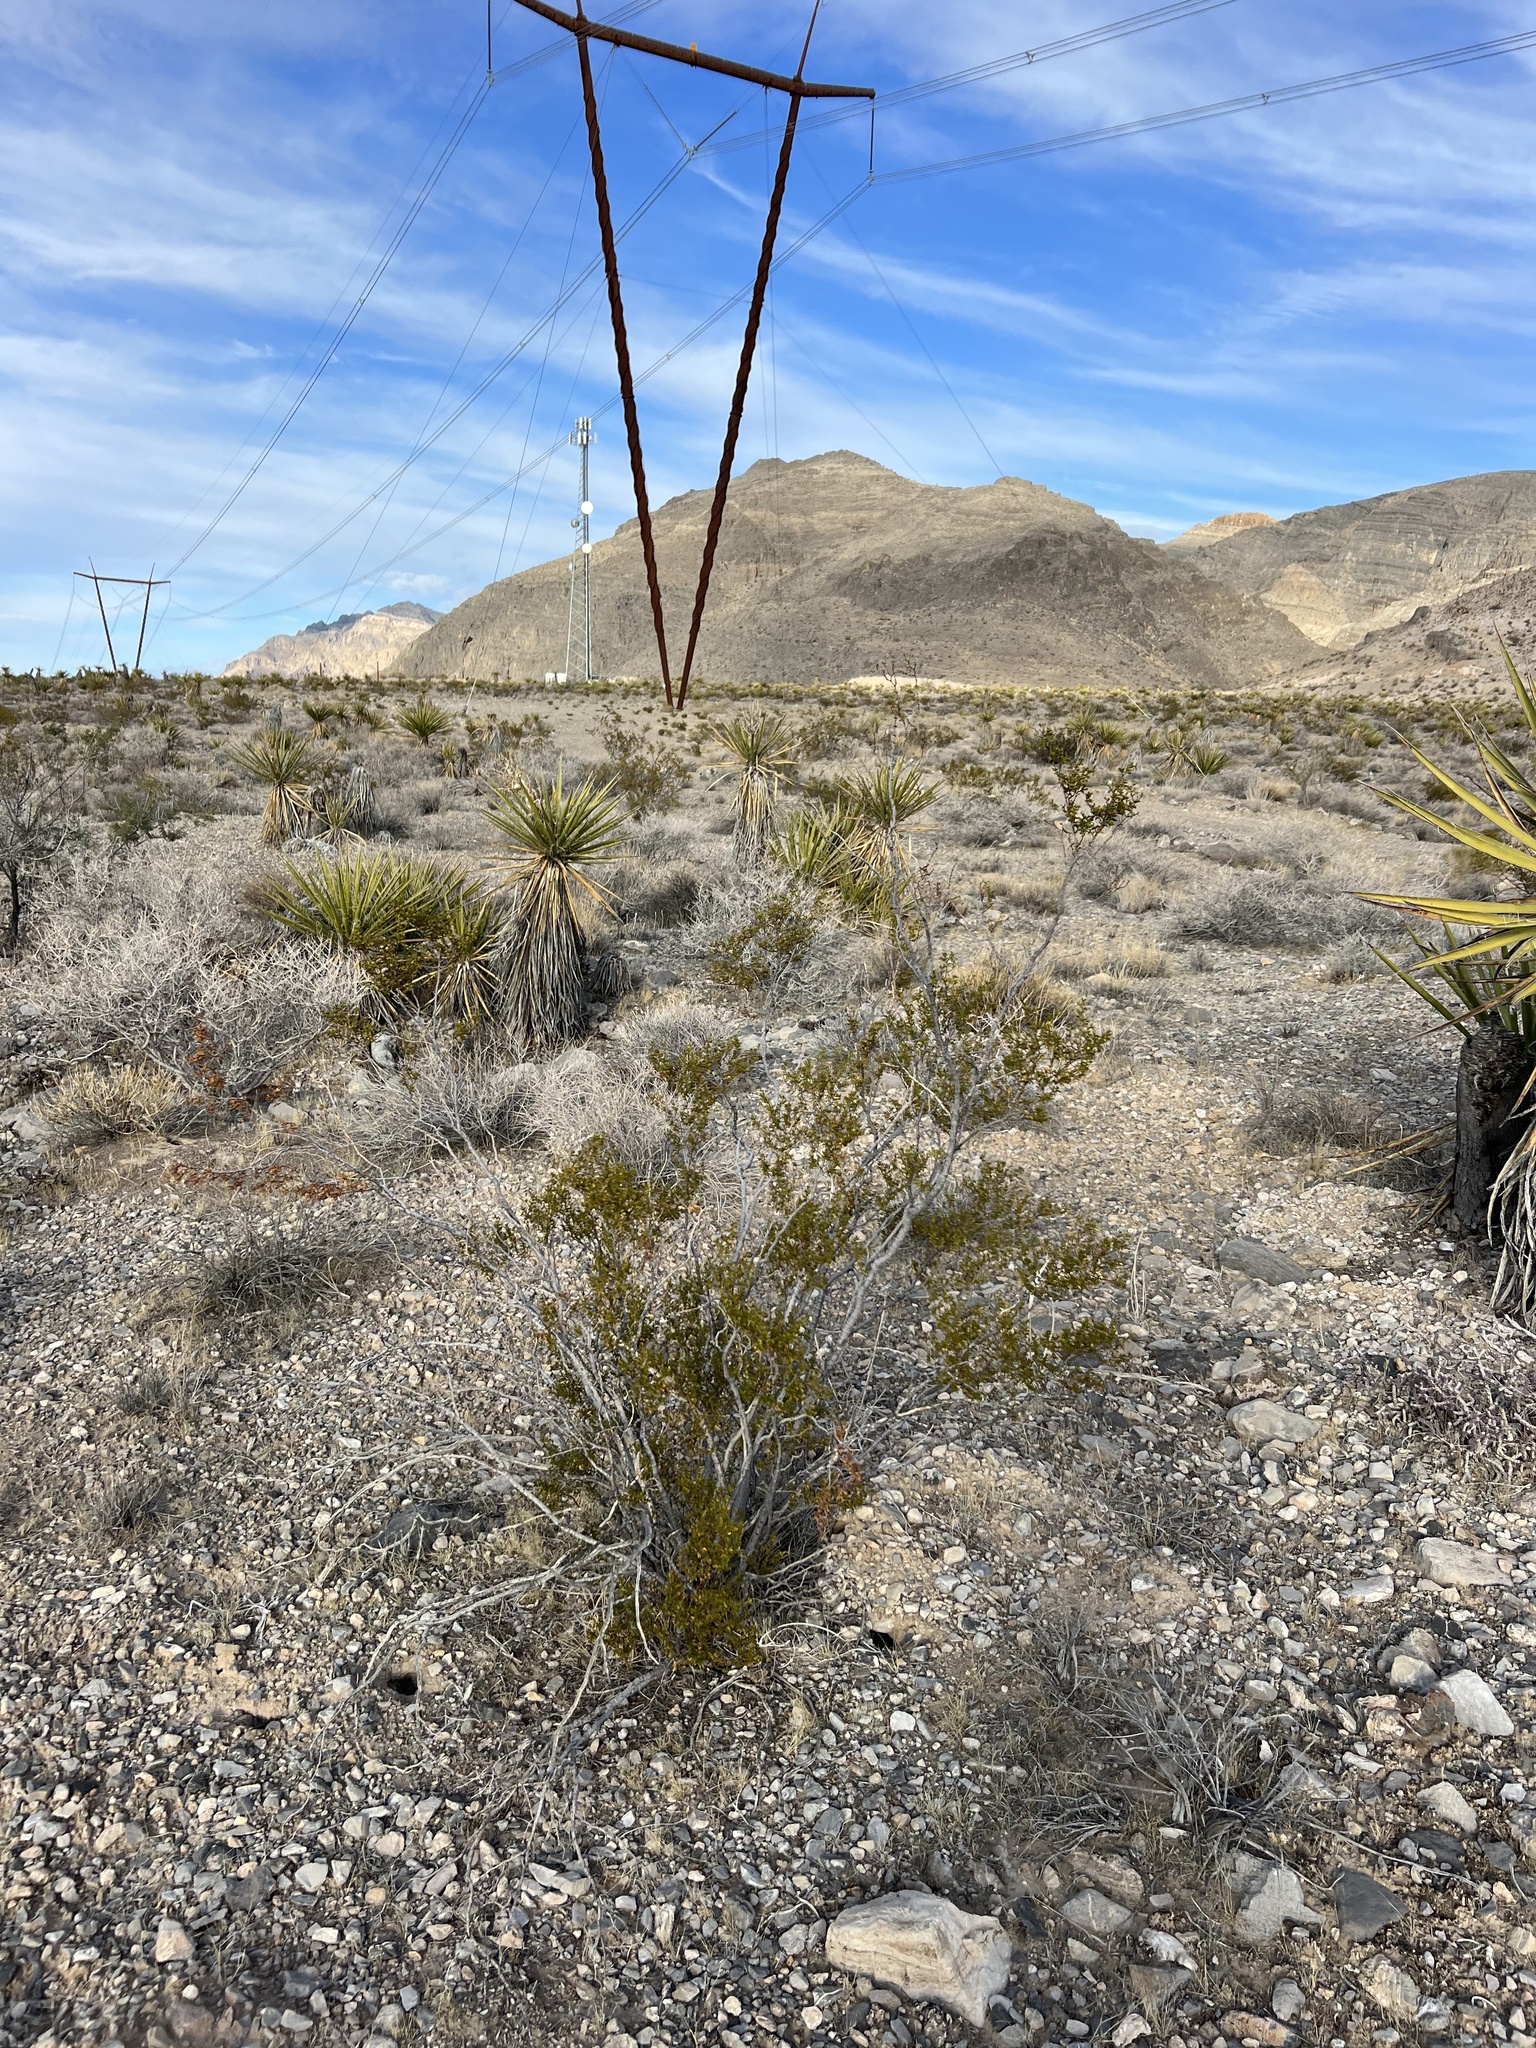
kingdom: Plantae
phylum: Tracheophyta
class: Magnoliopsida
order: Zygophyllales
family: Zygophyllaceae
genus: Larrea
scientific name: Larrea tridentata
